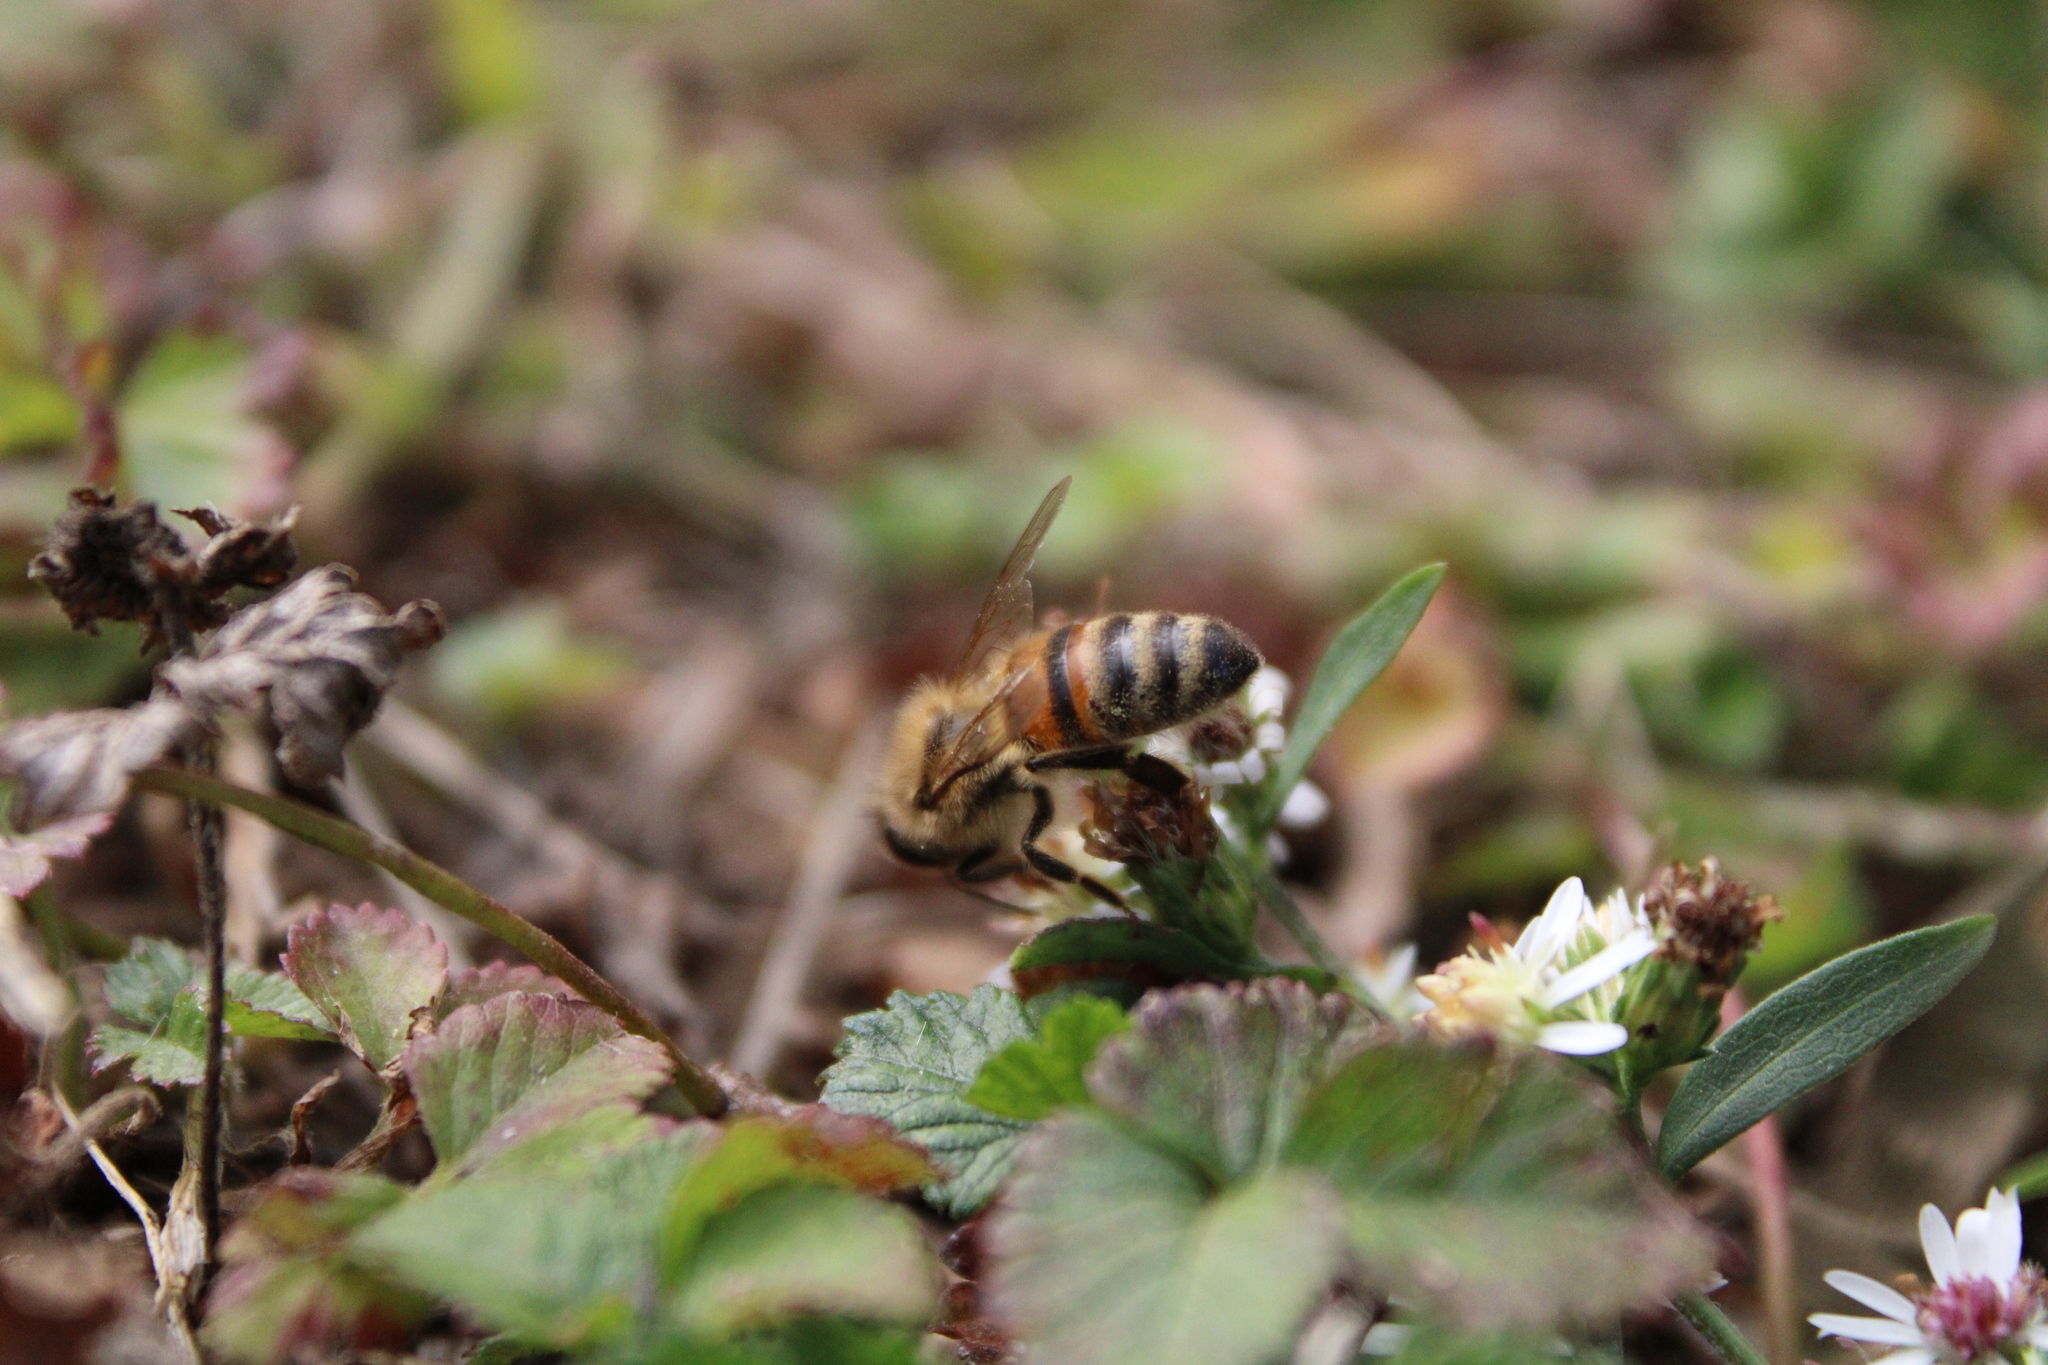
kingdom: Animalia
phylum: Arthropoda
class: Insecta
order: Hymenoptera
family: Apidae
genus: Apis
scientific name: Apis mellifera
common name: Honey bee
